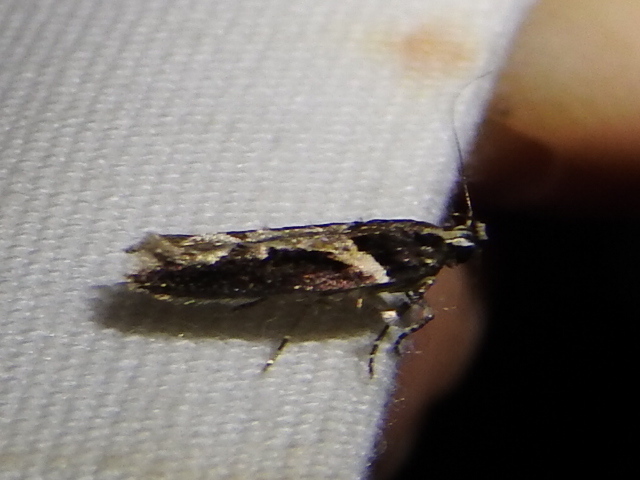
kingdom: Animalia
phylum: Arthropoda
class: Insecta
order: Lepidoptera
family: Gelechiidae
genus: Telphusa
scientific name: Telphusa longifasciella
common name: Y-backed telphusa
